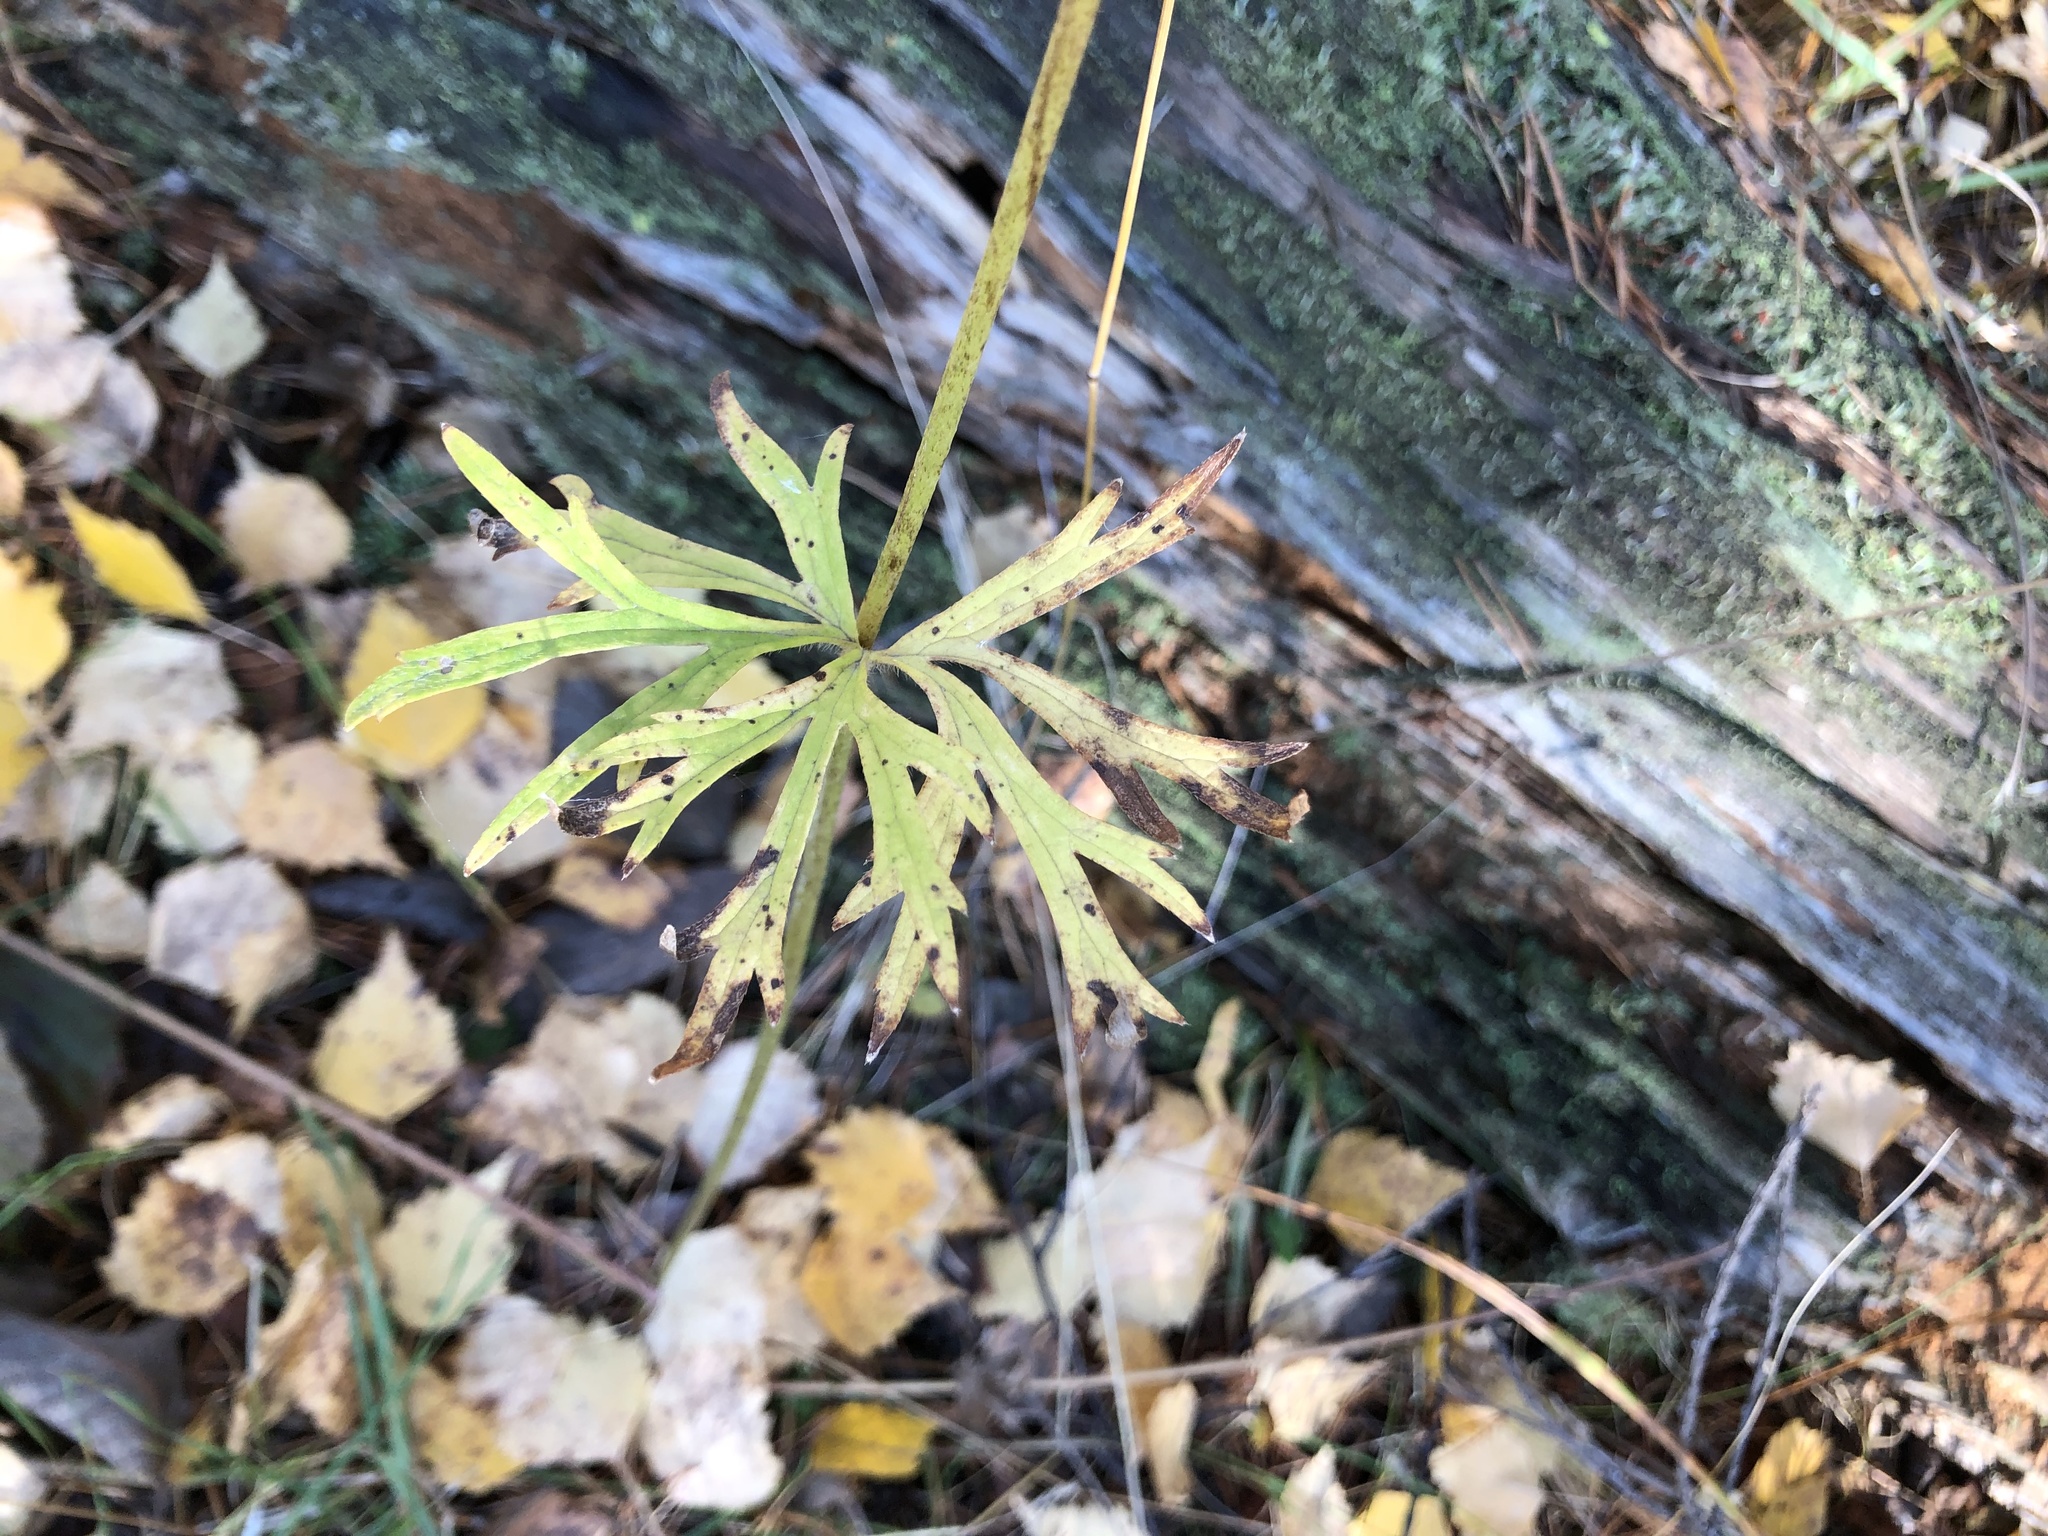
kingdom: Plantae
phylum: Tracheophyta
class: Magnoliopsida
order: Ranunculales
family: Ranunculaceae
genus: Ranunculus
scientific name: Ranunculus polyanthemos
